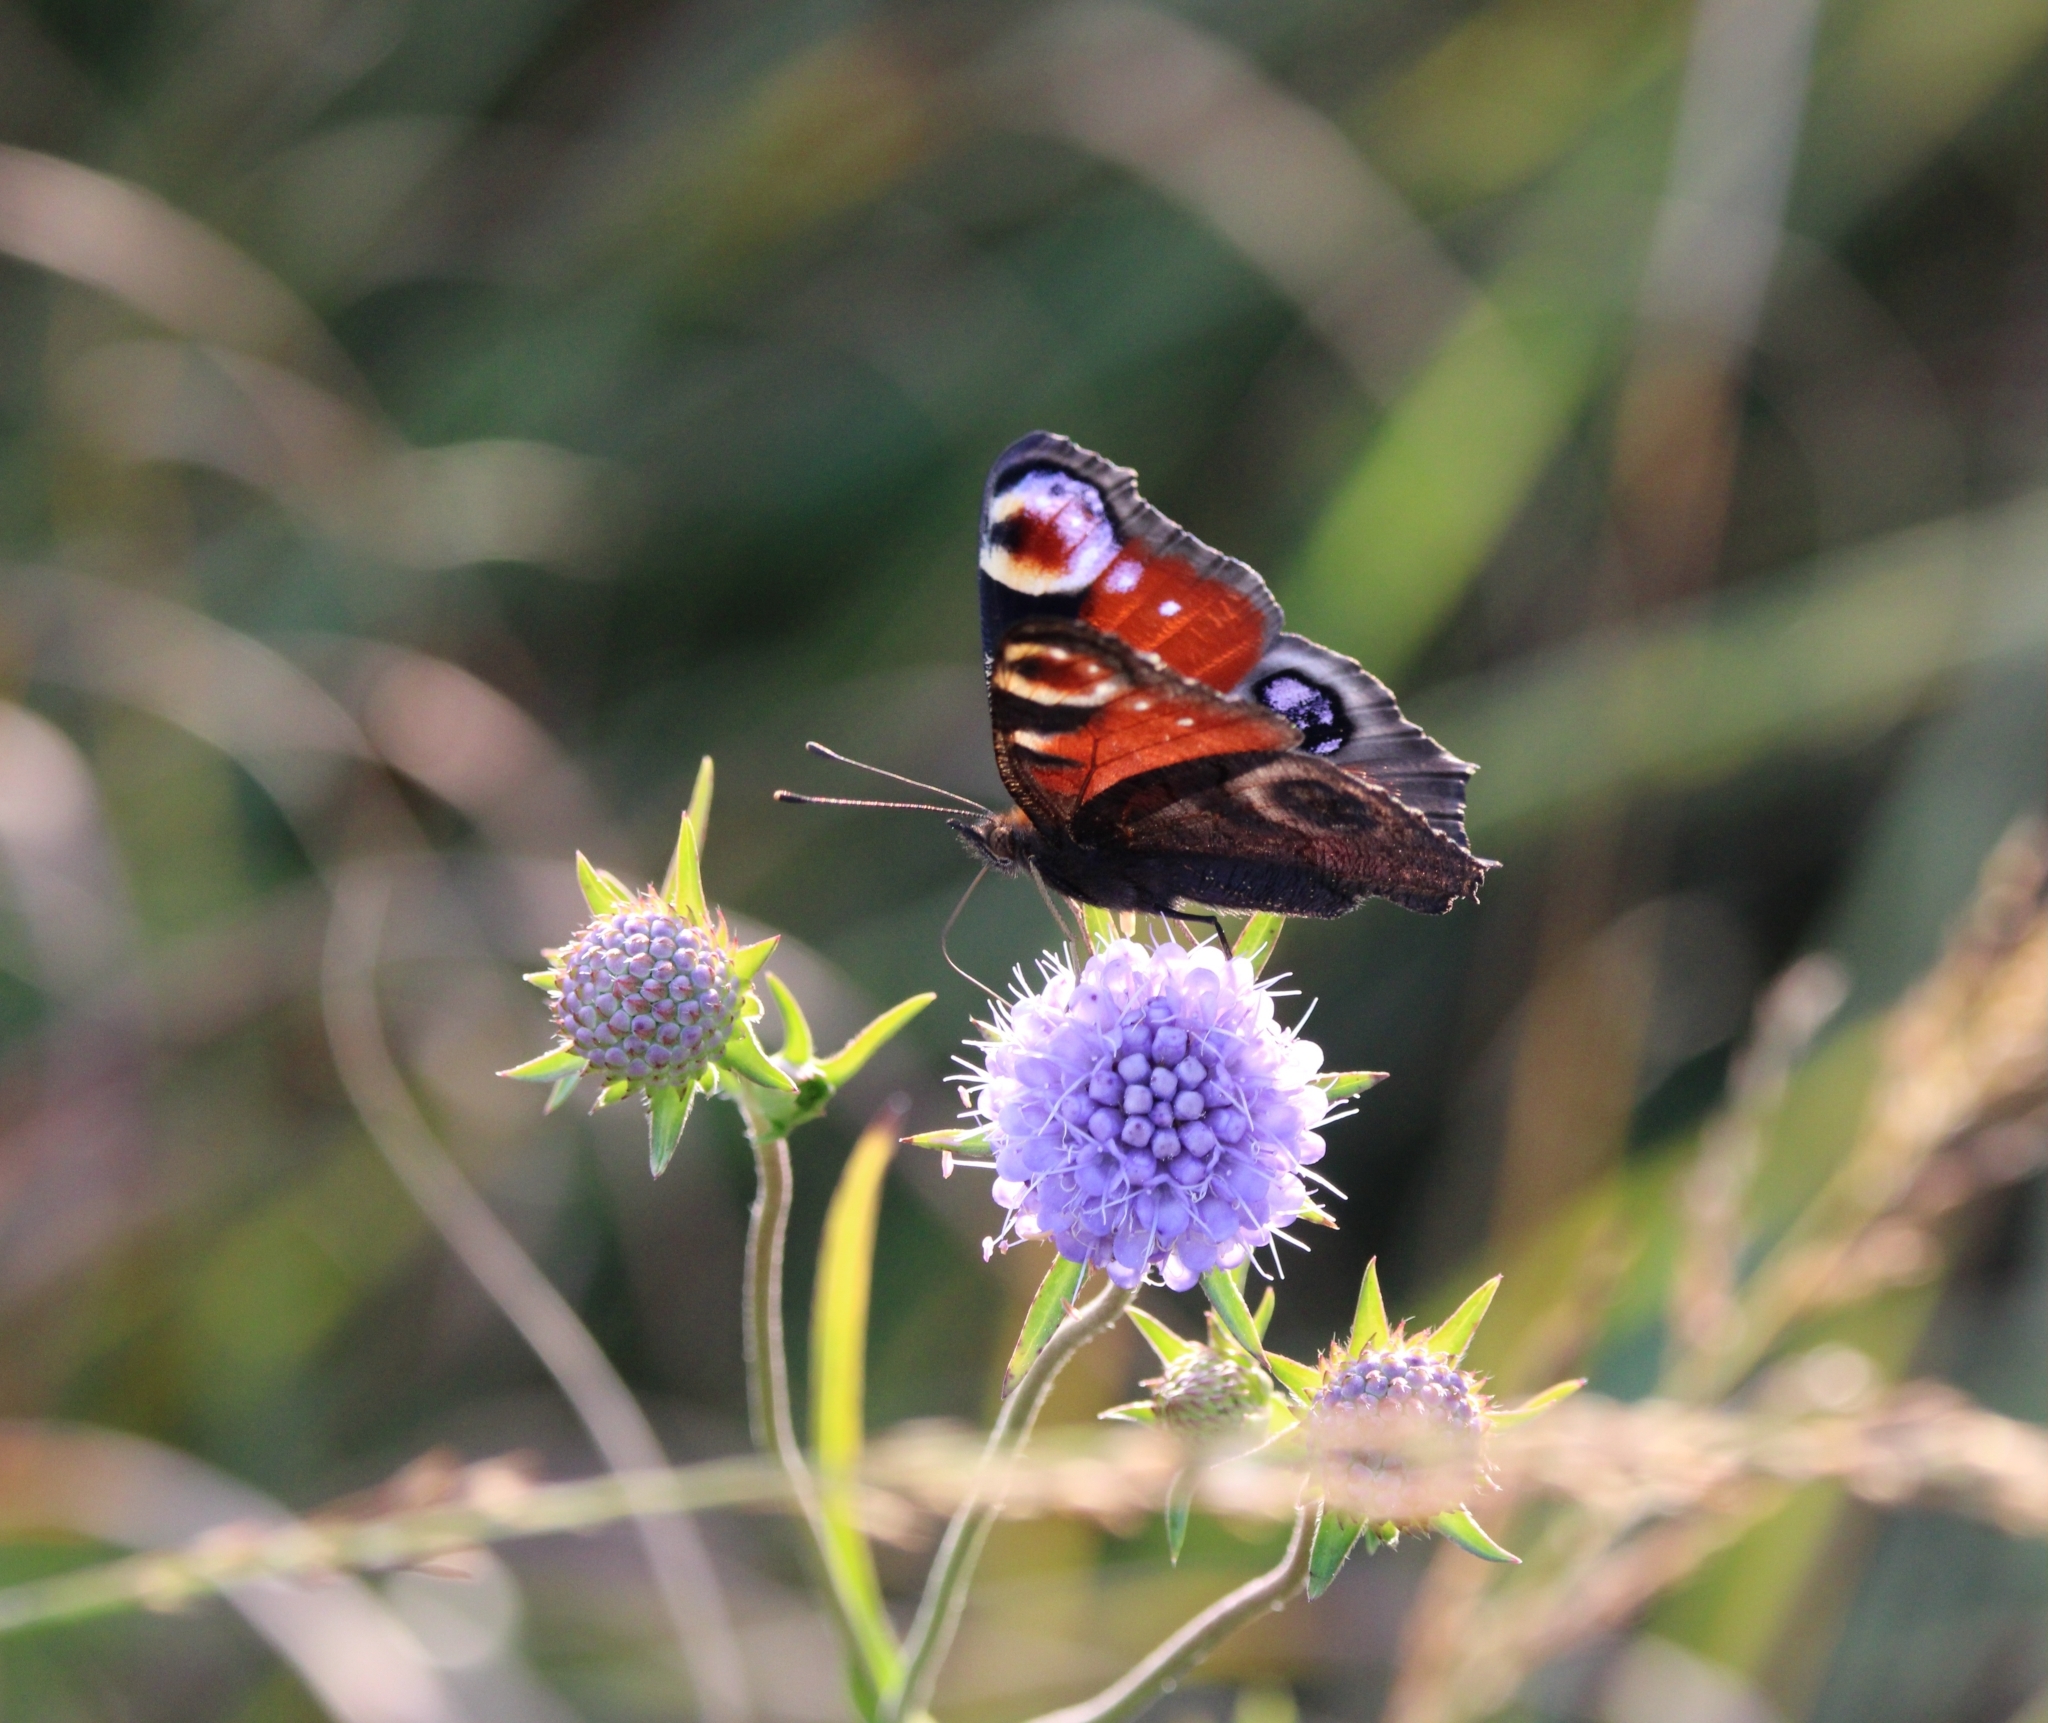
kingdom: Animalia
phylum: Arthropoda
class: Insecta
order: Lepidoptera
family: Nymphalidae
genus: Aglais
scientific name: Aglais io
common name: Peacock
